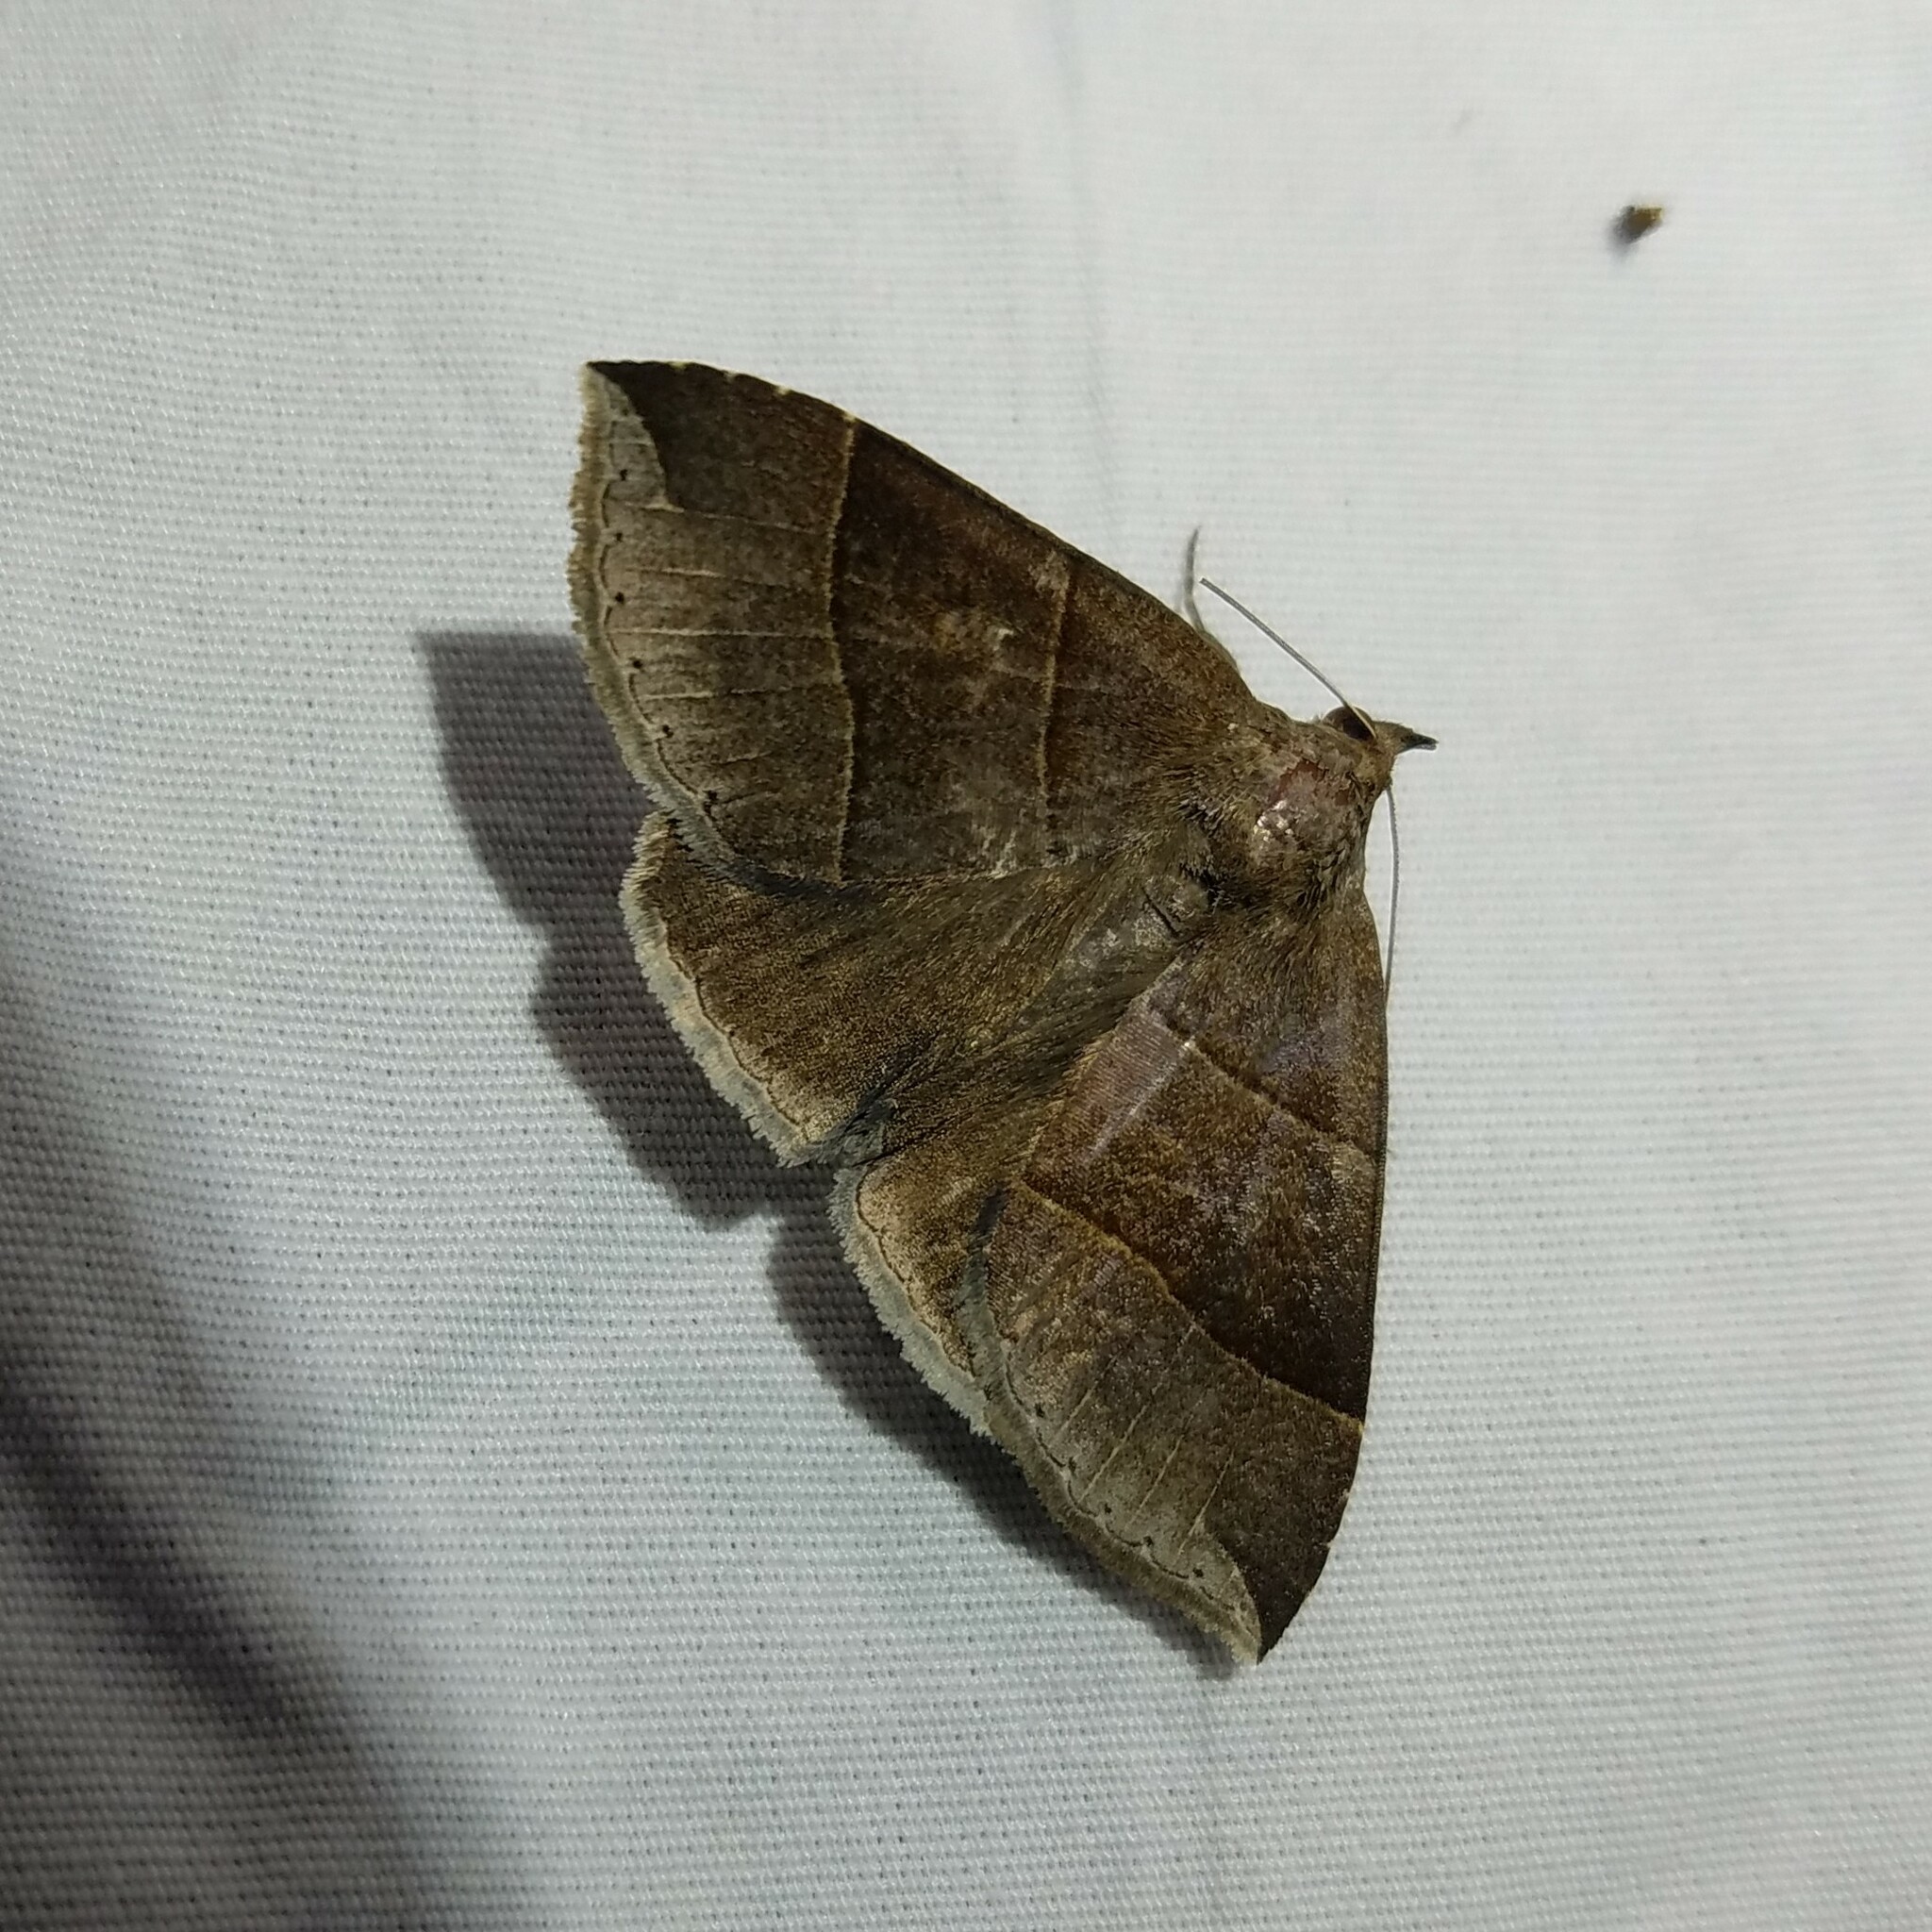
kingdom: Animalia
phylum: Arthropoda
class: Insecta
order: Lepidoptera
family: Erebidae
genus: Parallelia
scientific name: Parallelia bistriaris
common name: Maple looper moth
